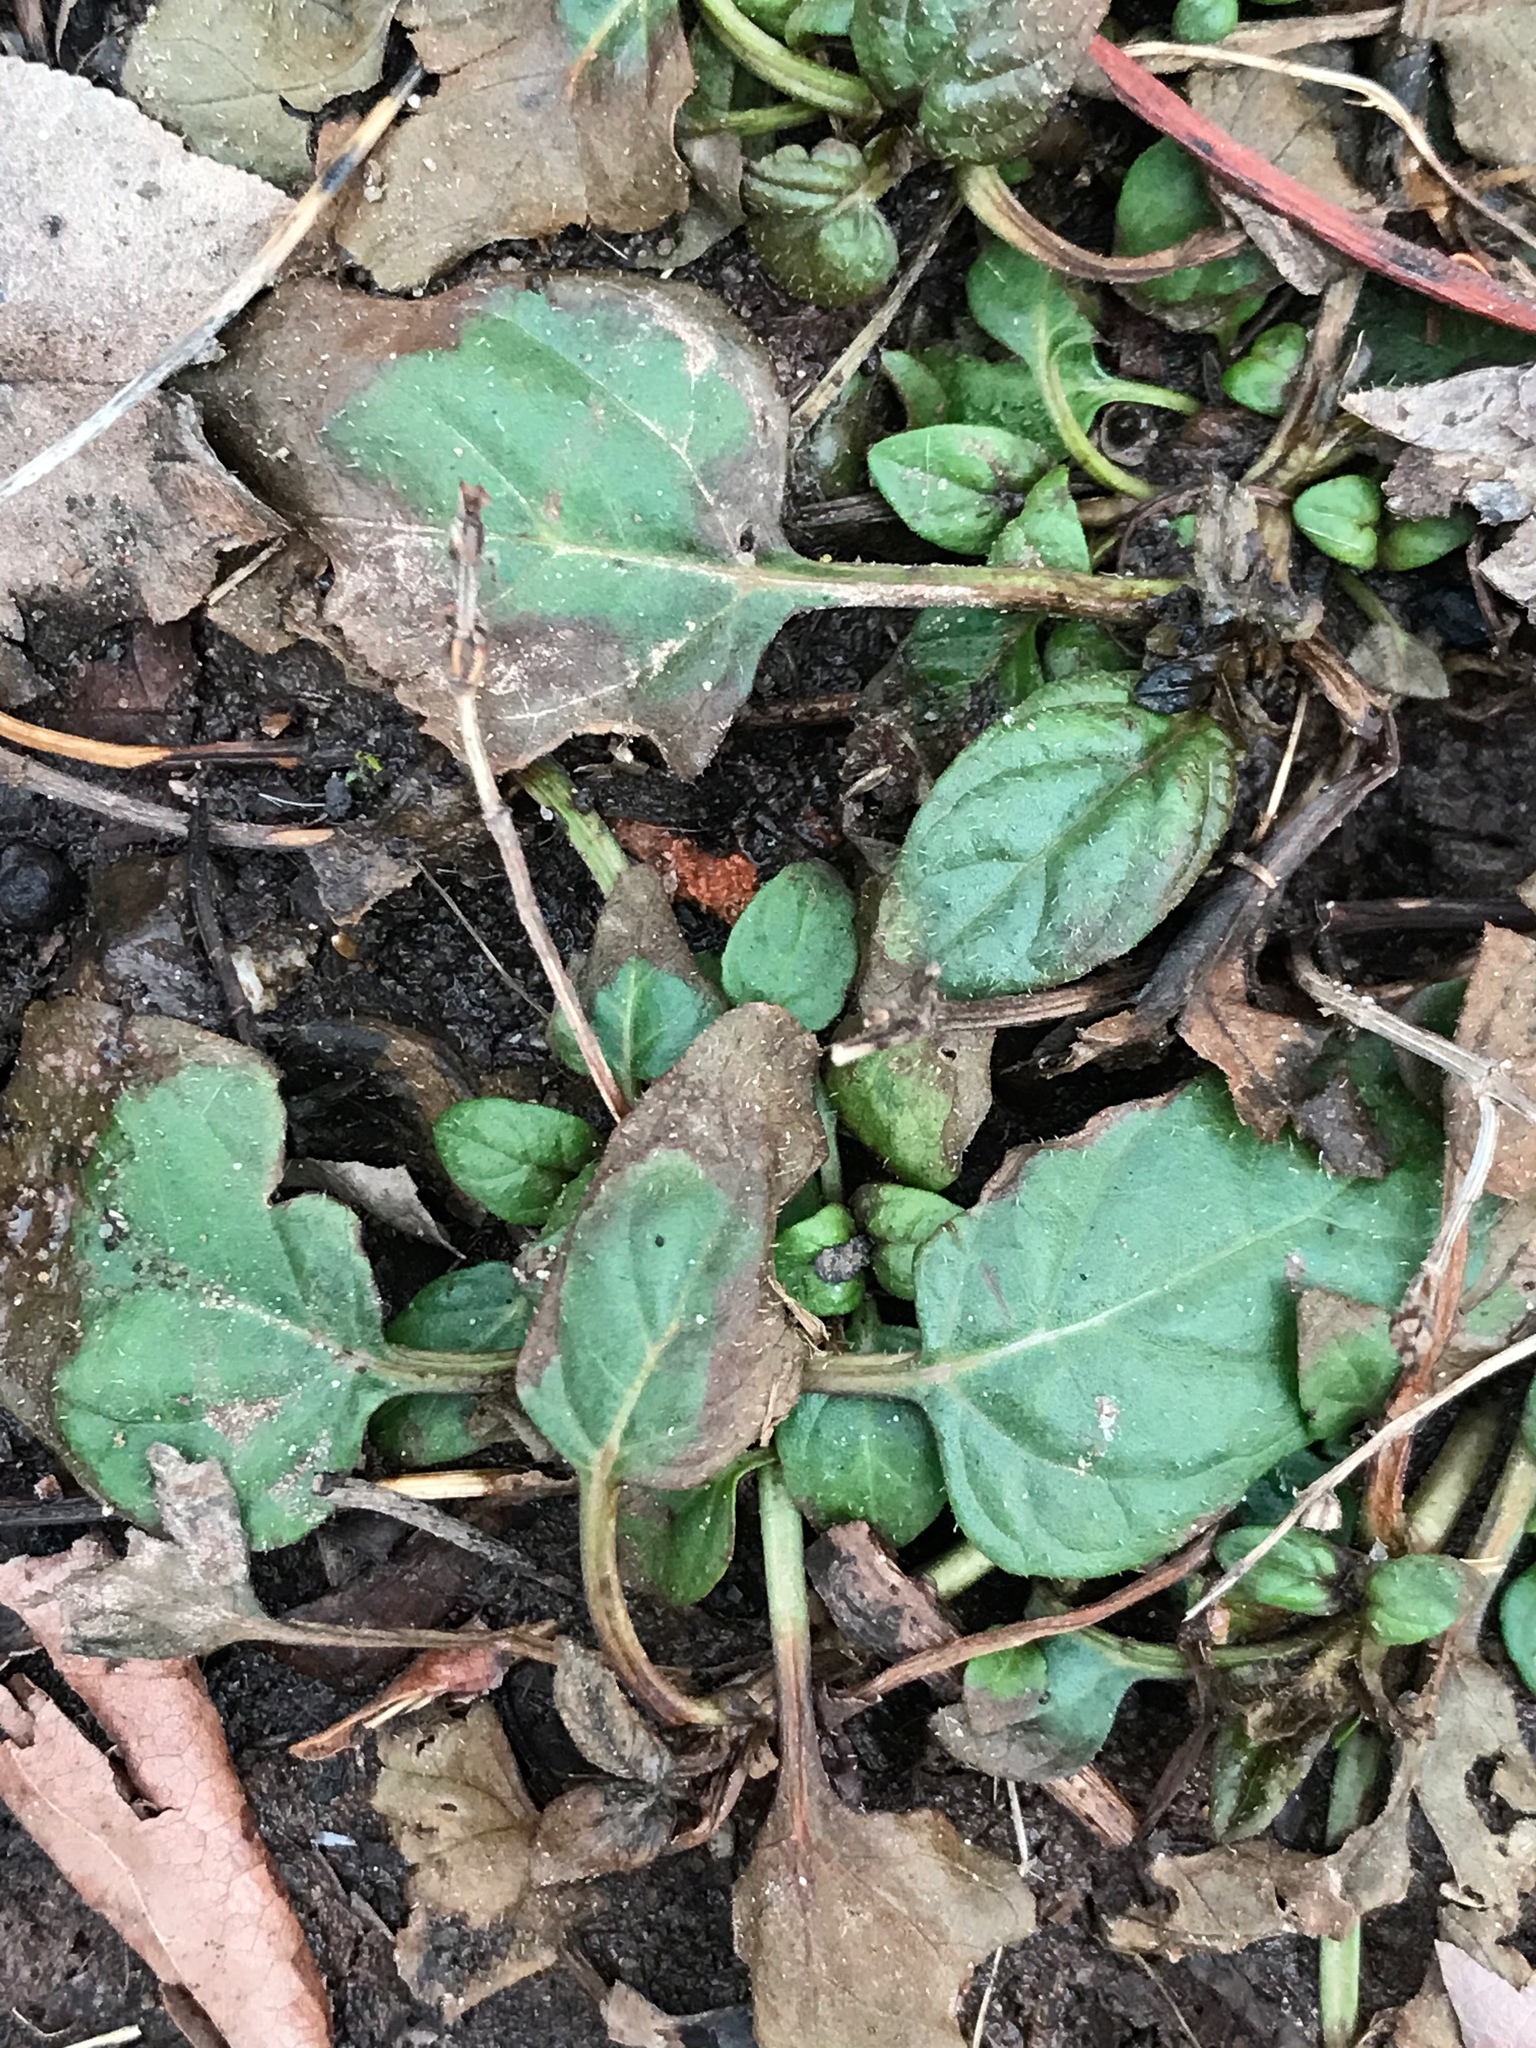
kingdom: Plantae
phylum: Tracheophyta
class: Magnoliopsida
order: Lamiales
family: Lamiaceae
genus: Prunella
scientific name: Prunella vulgaris
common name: Heal-all
